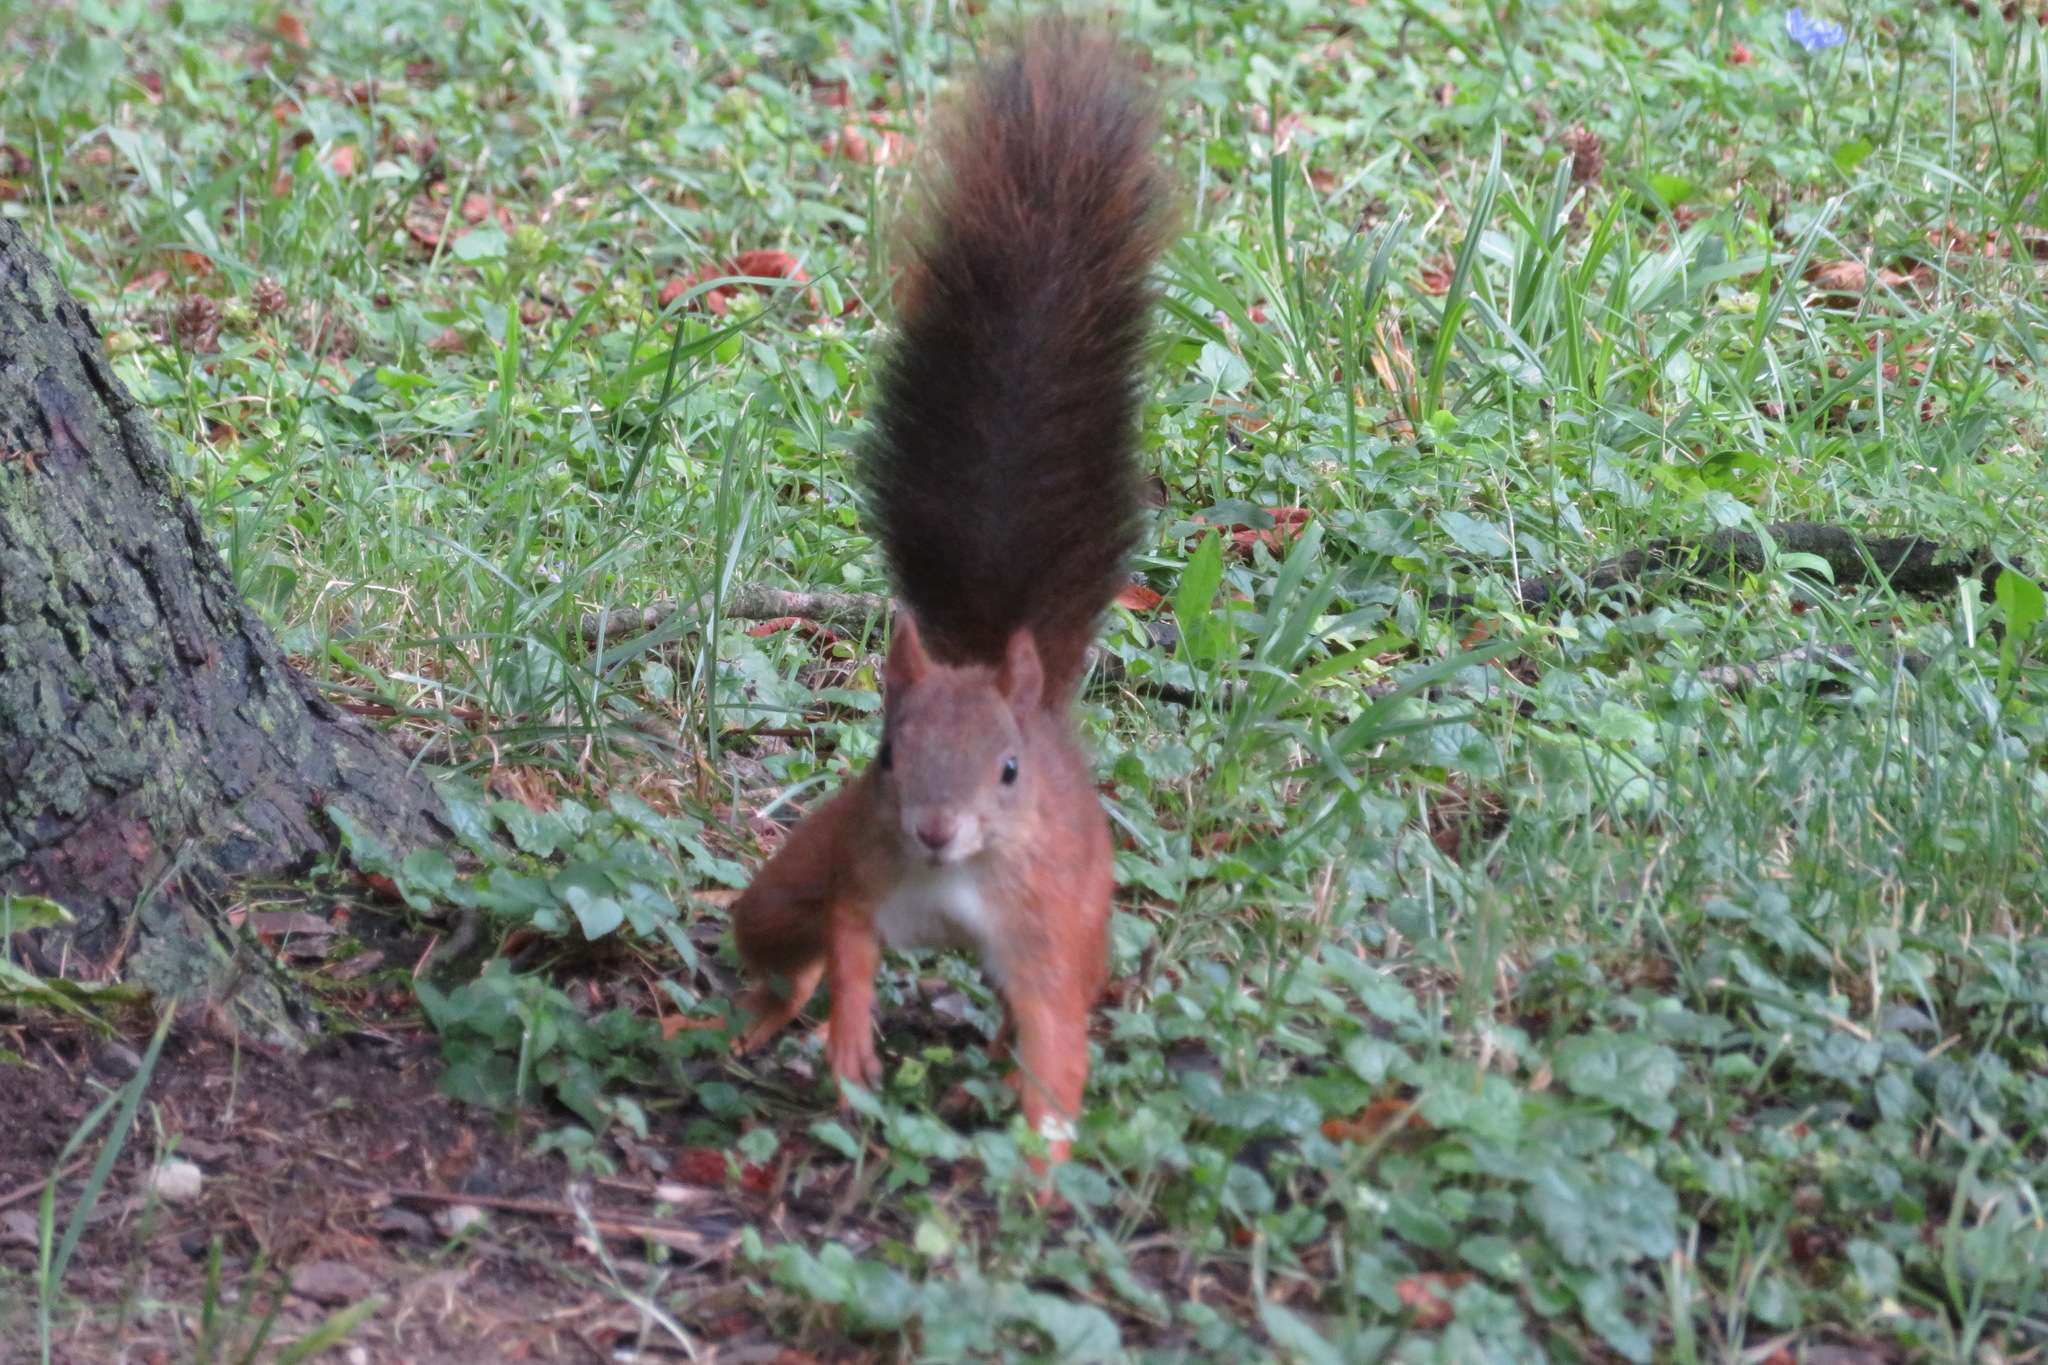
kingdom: Animalia
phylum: Chordata
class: Mammalia
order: Rodentia
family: Sciuridae
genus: Sciurus
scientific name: Sciurus vulgaris
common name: Eurasian red squirrel
